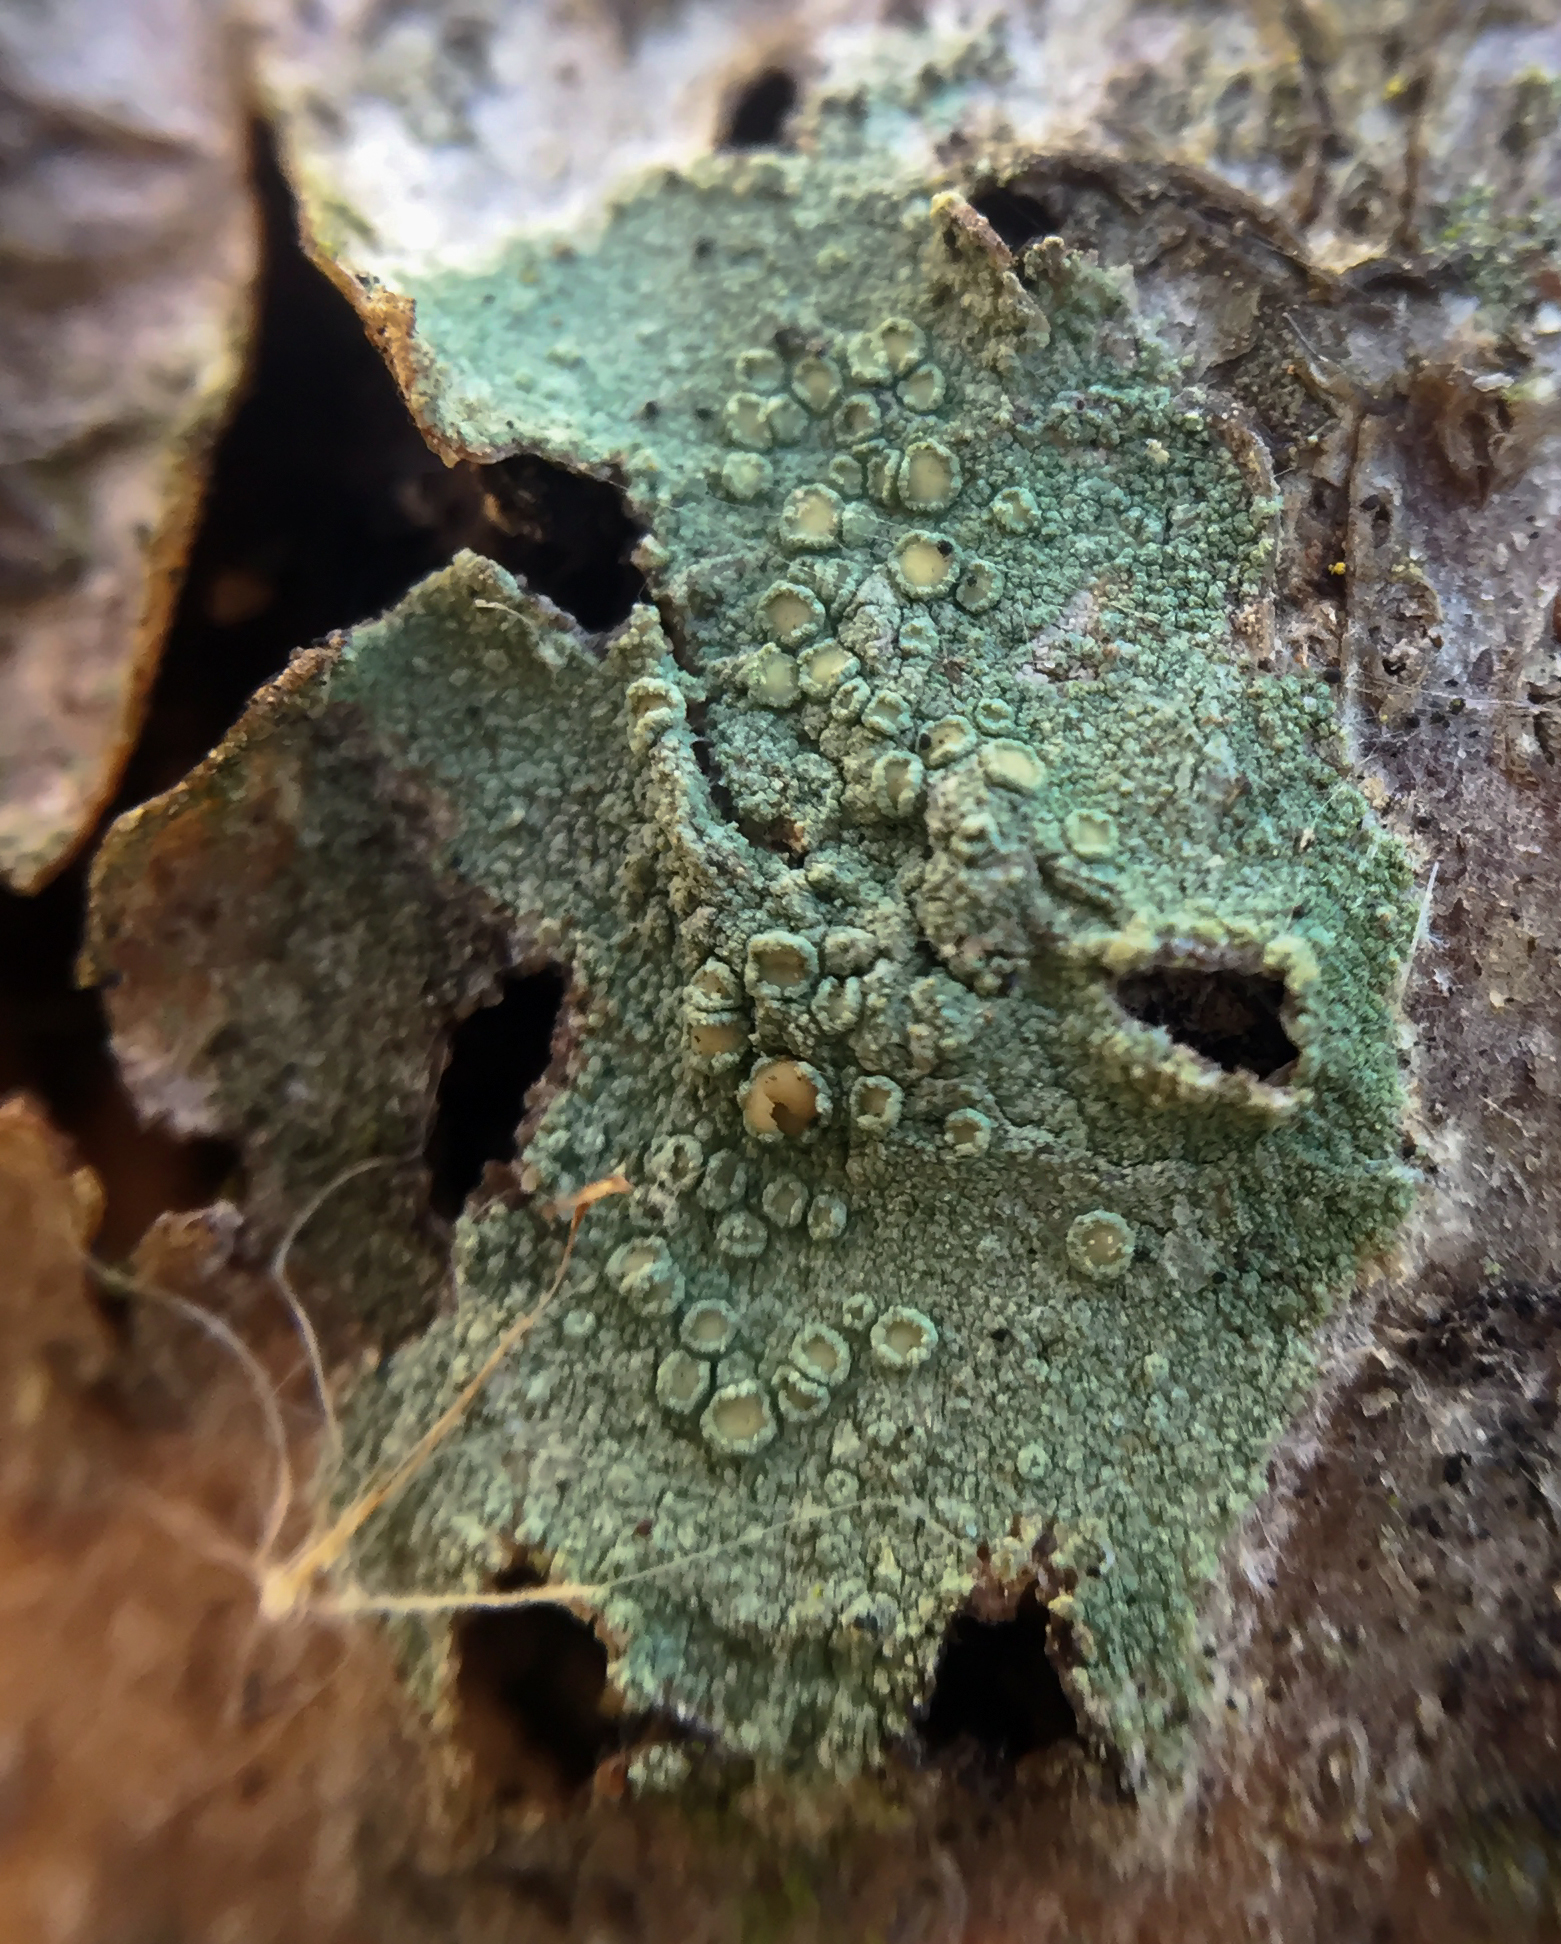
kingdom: Fungi
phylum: Ascomycota
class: Lecanoromycetes
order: Lecanorales
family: Lecanoraceae
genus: Lecanora
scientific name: Lecanora strobilina
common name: Mealy rim-lichen
